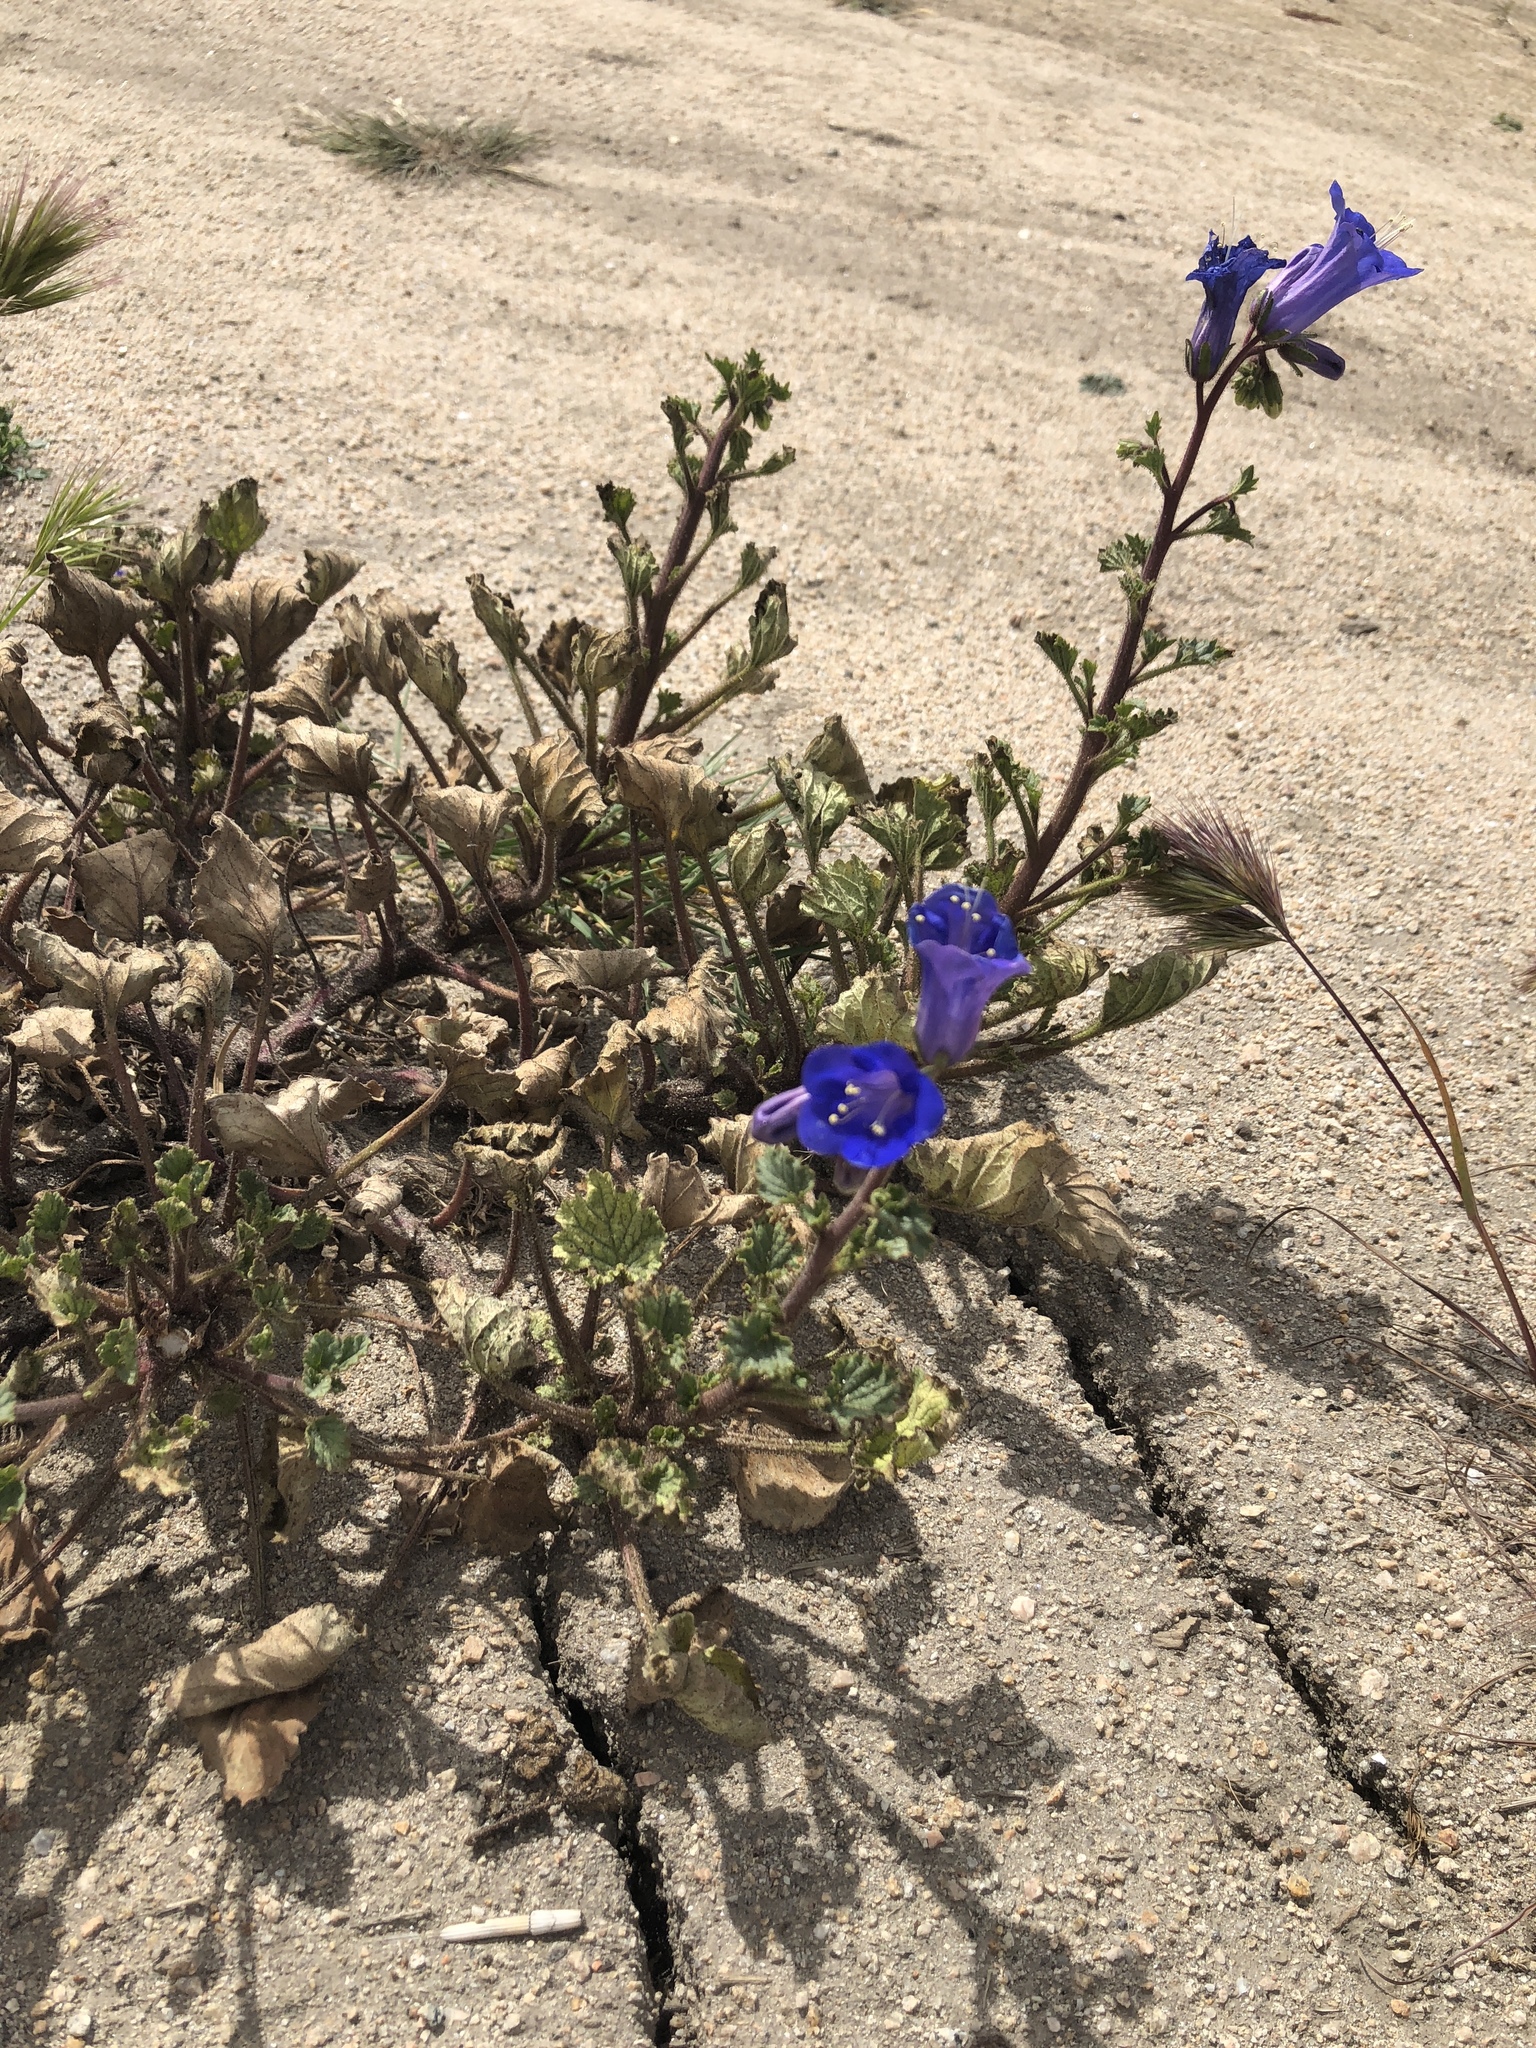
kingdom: Plantae
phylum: Tracheophyta
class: Magnoliopsida
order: Boraginales
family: Hydrophyllaceae
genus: Phacelia
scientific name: Phacelia campanularia
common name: California bluebell
